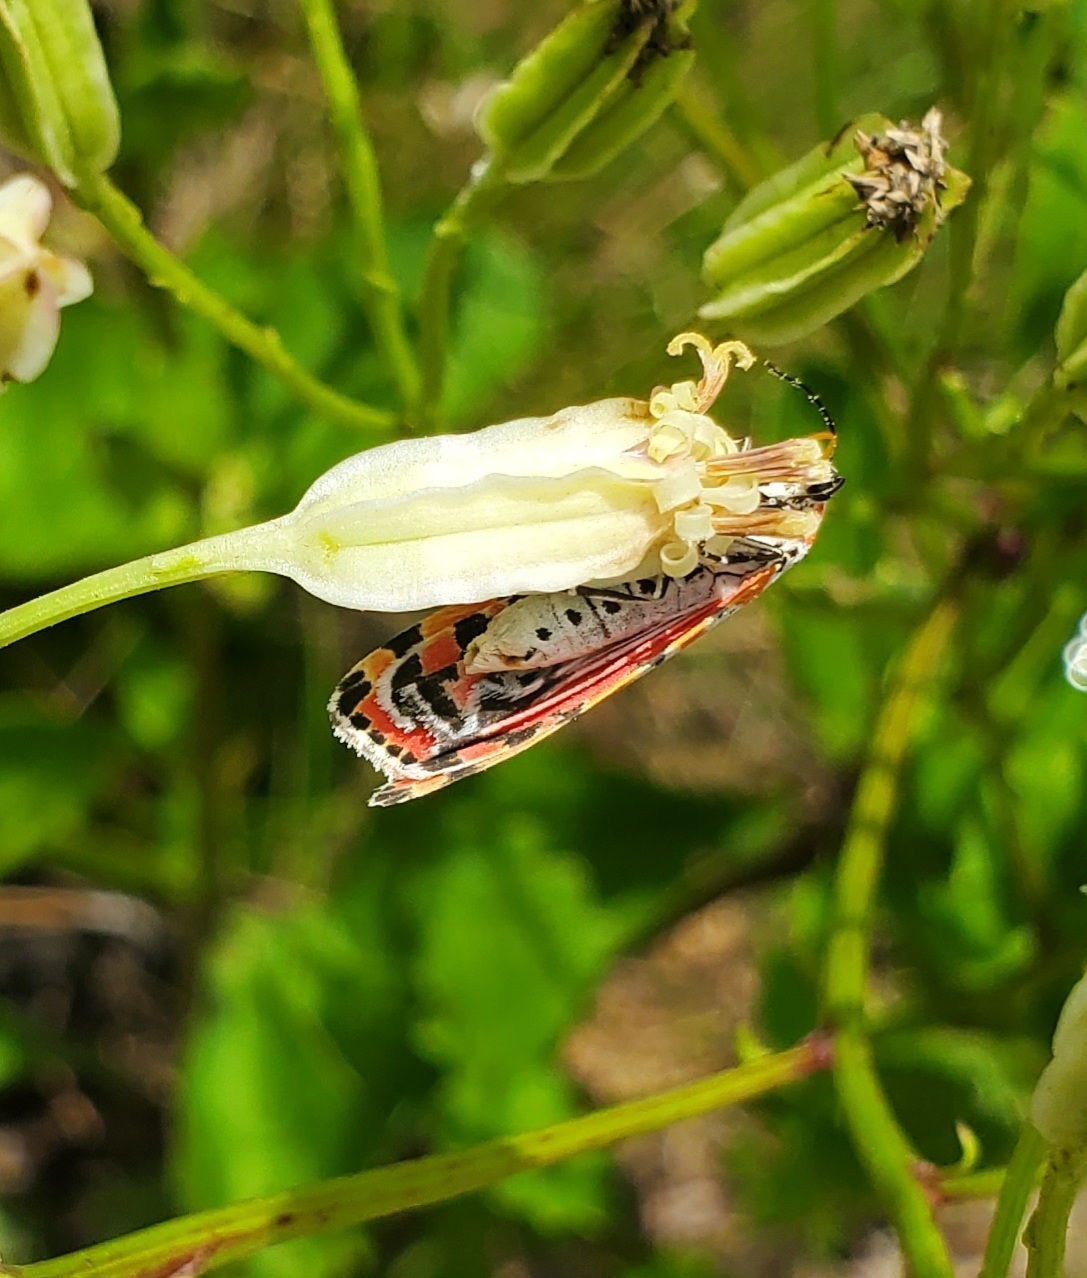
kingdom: Animalia
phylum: Arthropoda
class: Insecta
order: Lepidoptera
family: Erebidae
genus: Utetheisa
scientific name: Utetheisa ornatrix
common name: Beautiful utetheisa
